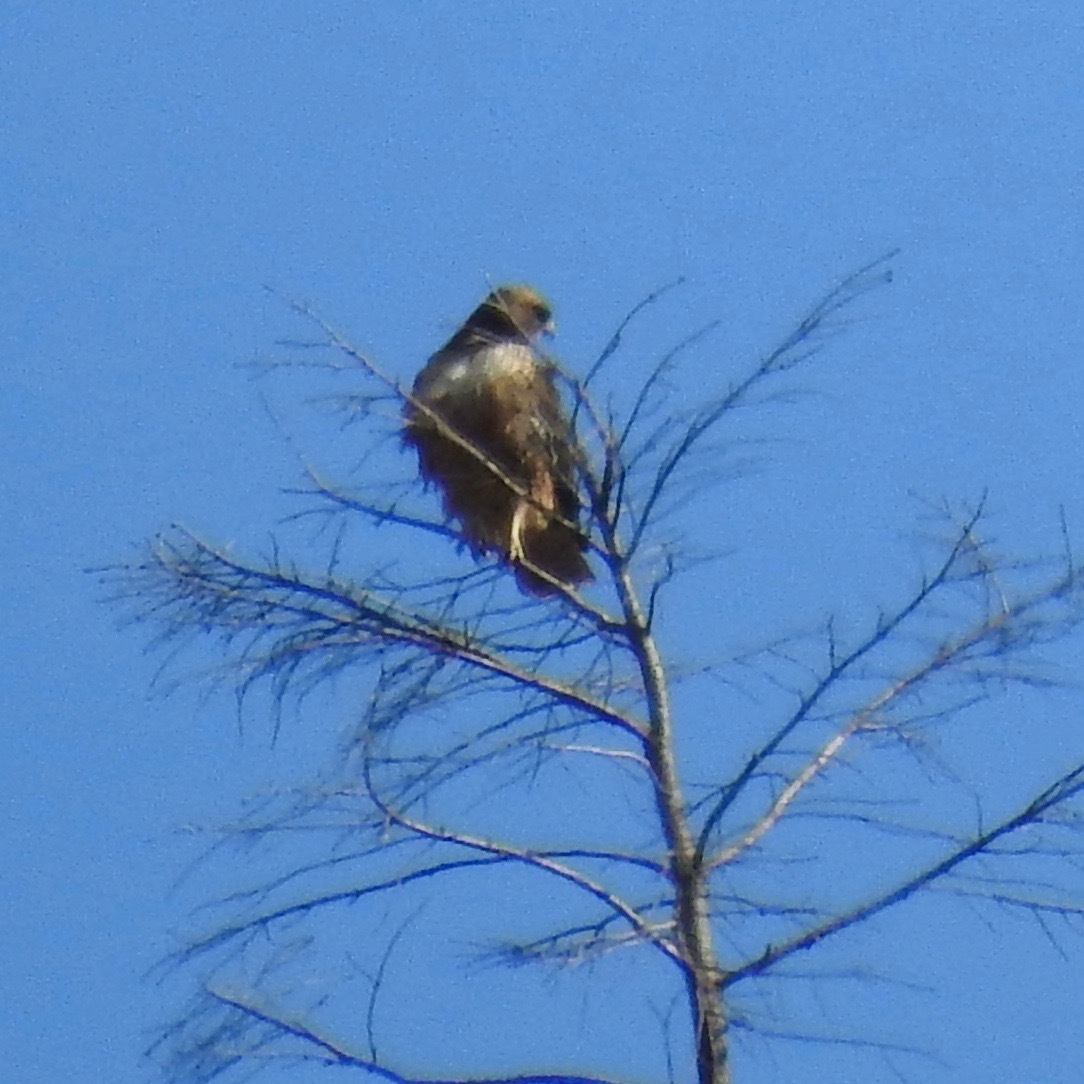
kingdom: Animalia
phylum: Chordata
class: Aves
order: Accipitriformes
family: Accipitridae
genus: Buteo
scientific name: Buteo jamaicensis
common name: Red-tailed hawk
